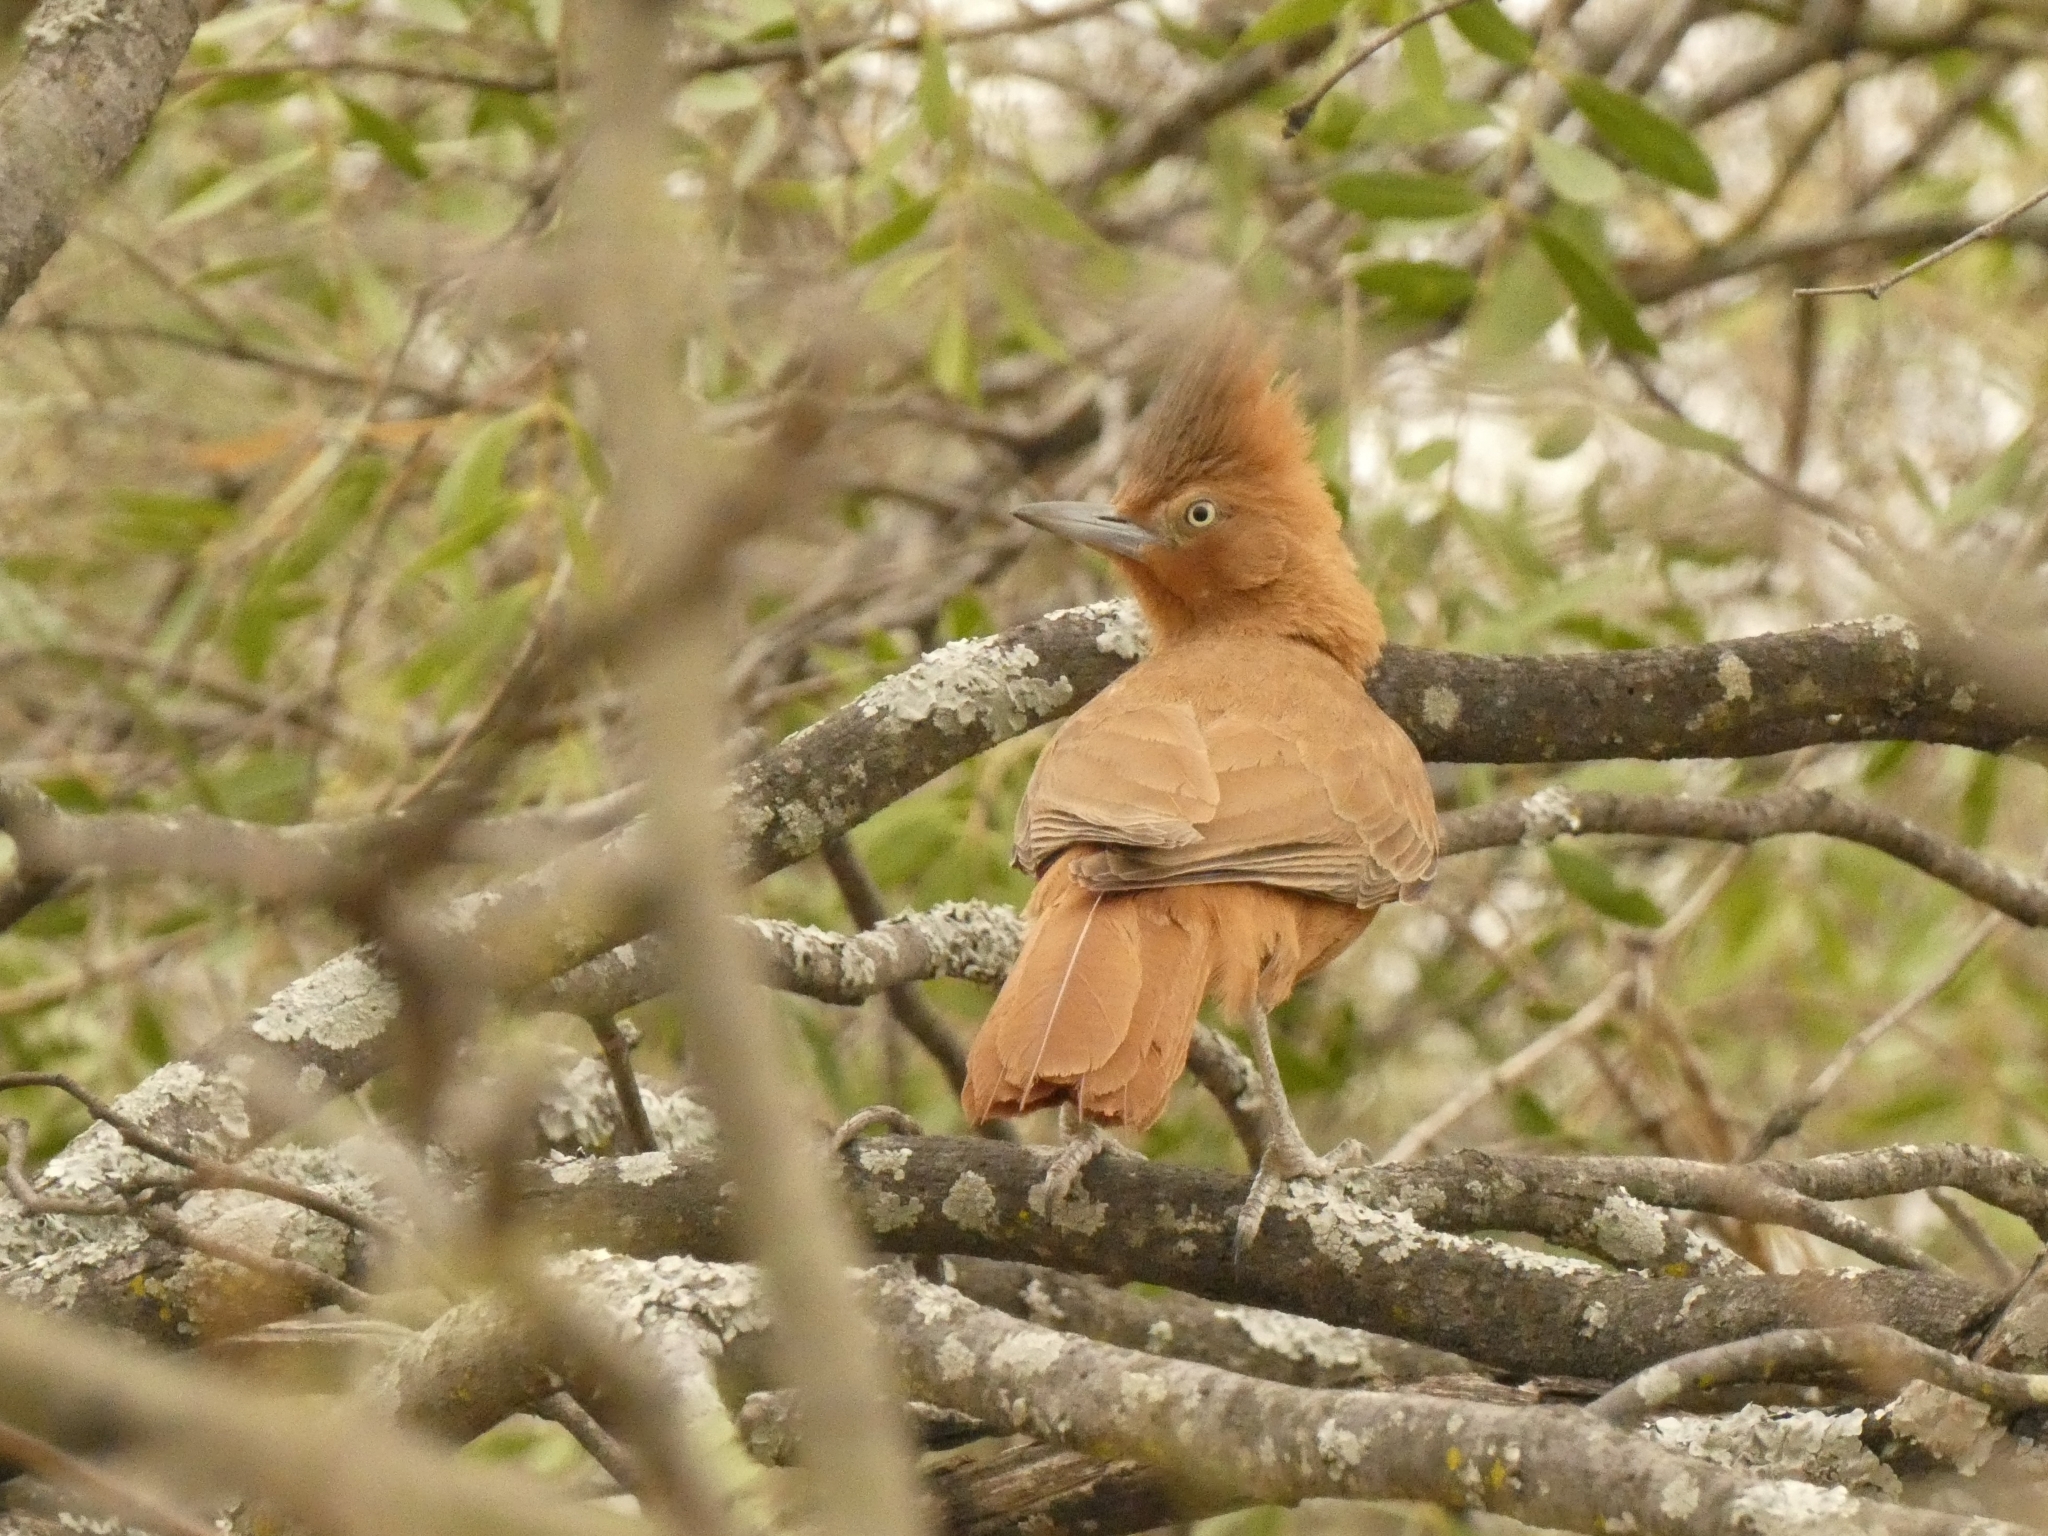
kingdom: Animalia
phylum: Chordata
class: Aves
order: Passeriformes
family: Furnariidae
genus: Pseudoseisura
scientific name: Pseudoseisura lophotes
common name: Brown cacholote
